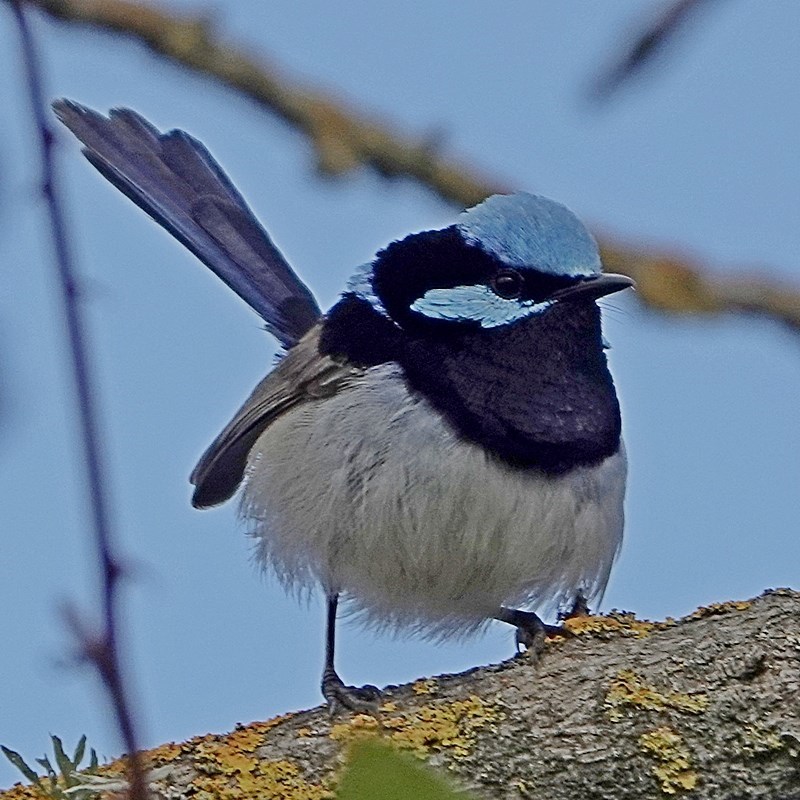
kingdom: Animalia
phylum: Chordata
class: Aves
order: Passeriformes
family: Maluridae
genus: Malurus
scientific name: Malurus cyaneus
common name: Superb fairywren
